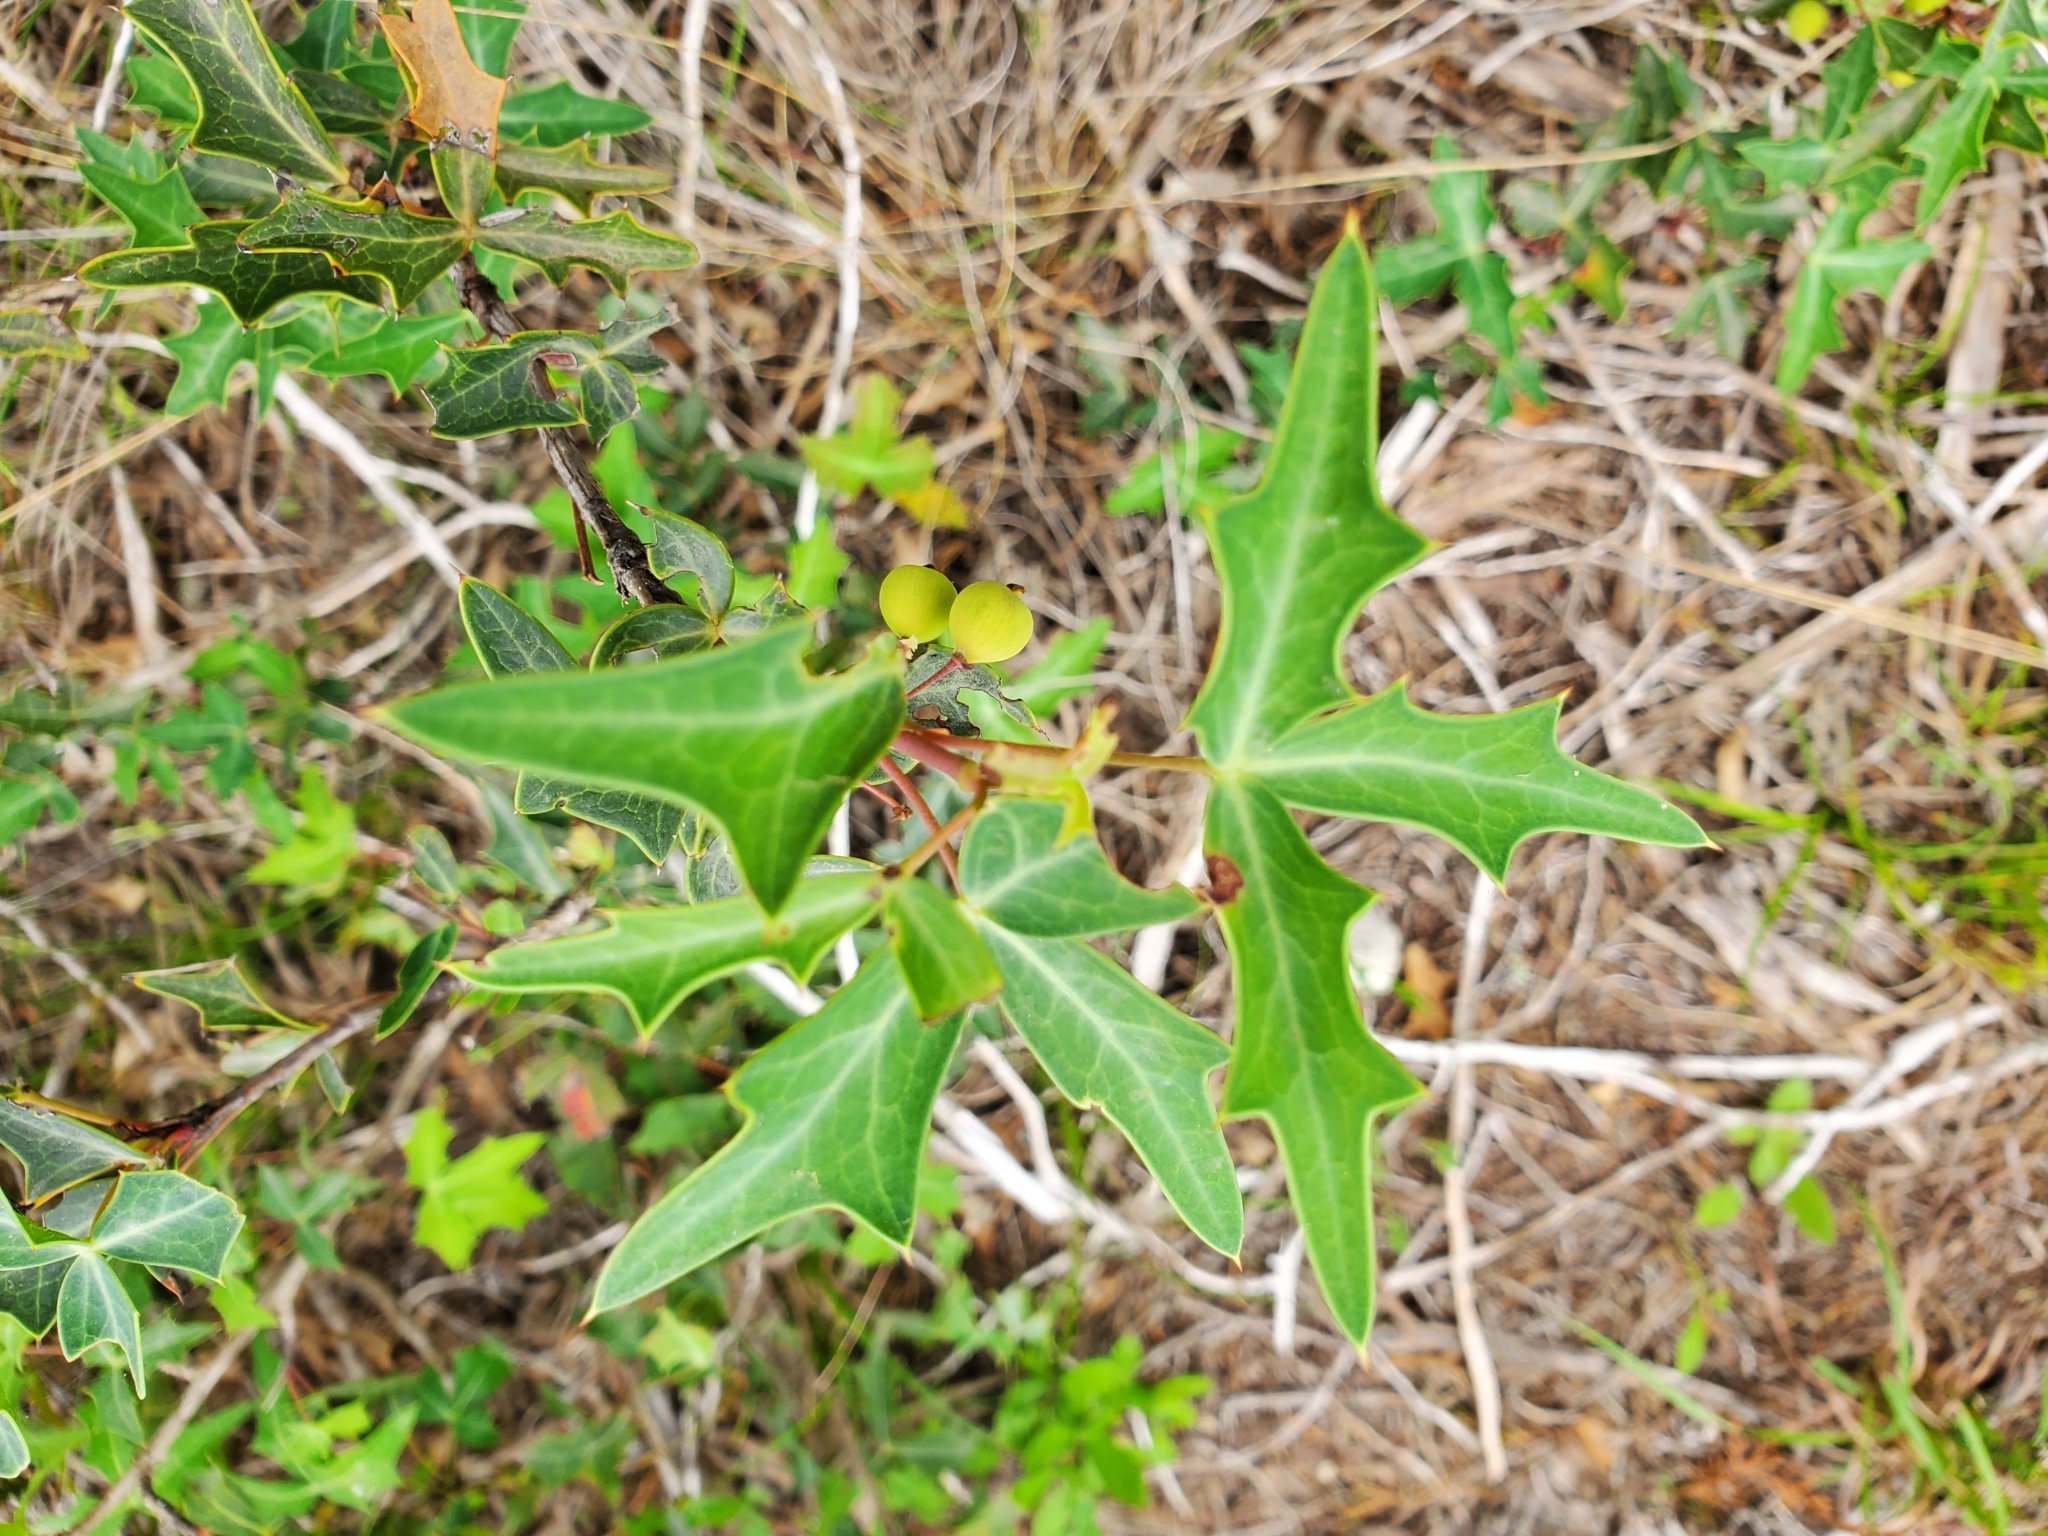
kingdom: Plantae
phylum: Tracheophyta
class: Magnoliopsida
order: Ranunculales
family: Berberidaceae
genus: Alloberberis
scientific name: Alloberberis trifoliolata
